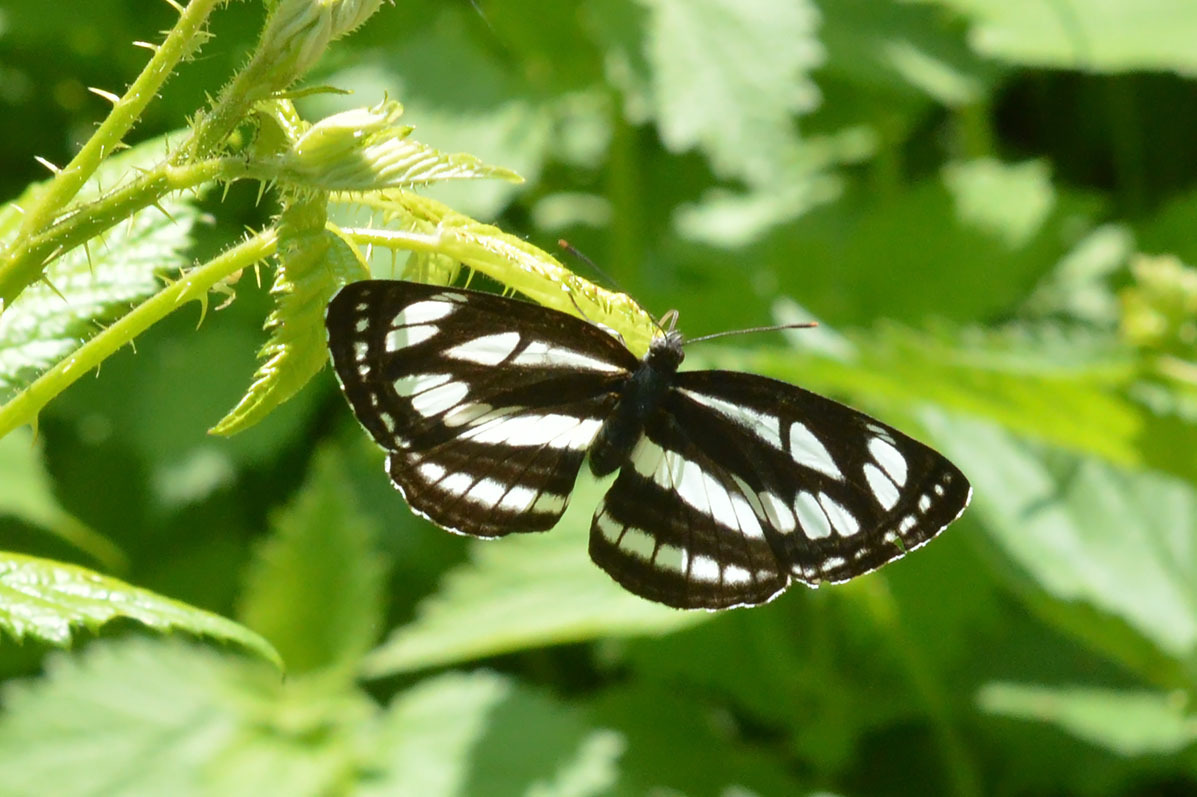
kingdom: Animalia
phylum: Arthropoda
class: Insecta
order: Lepidoptera
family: Nymphalidae
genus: Neptis
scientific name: Neptis sappho
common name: Common glider
